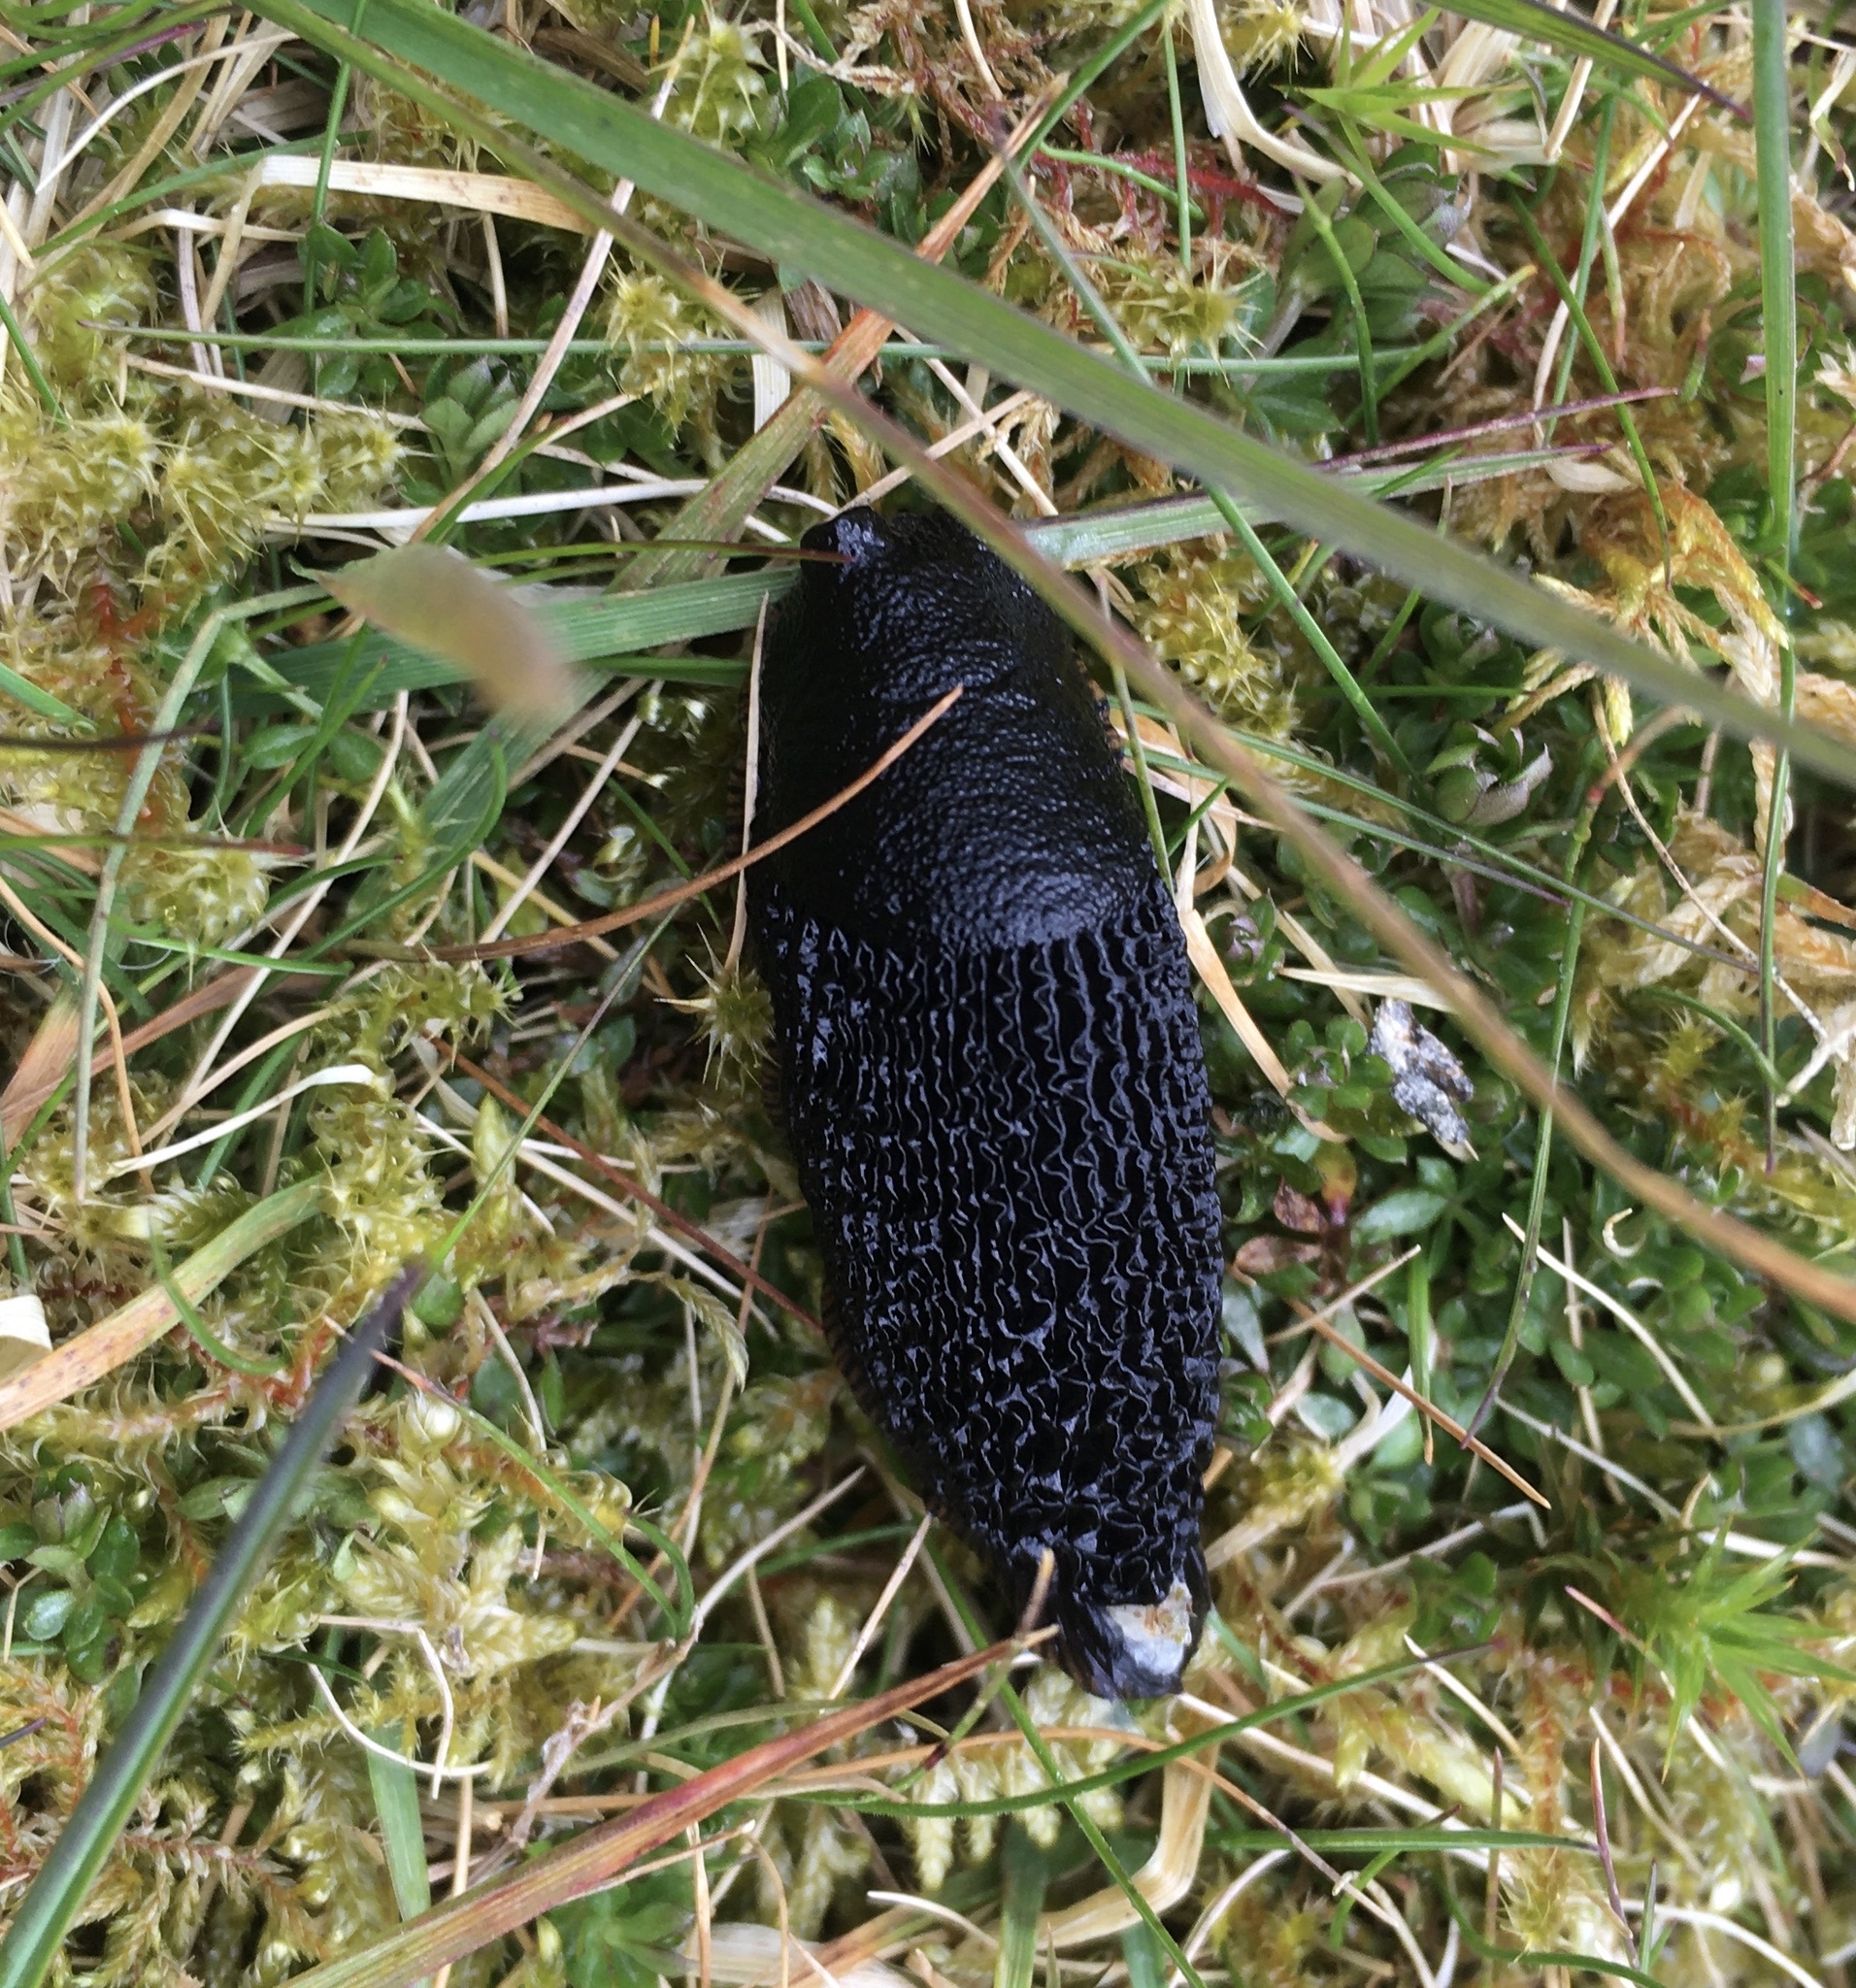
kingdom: Animalia
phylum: Mollusca
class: Gastropoda
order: Stylommatophora
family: Arionidae
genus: Arion
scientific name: Arion ater
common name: Black arion
